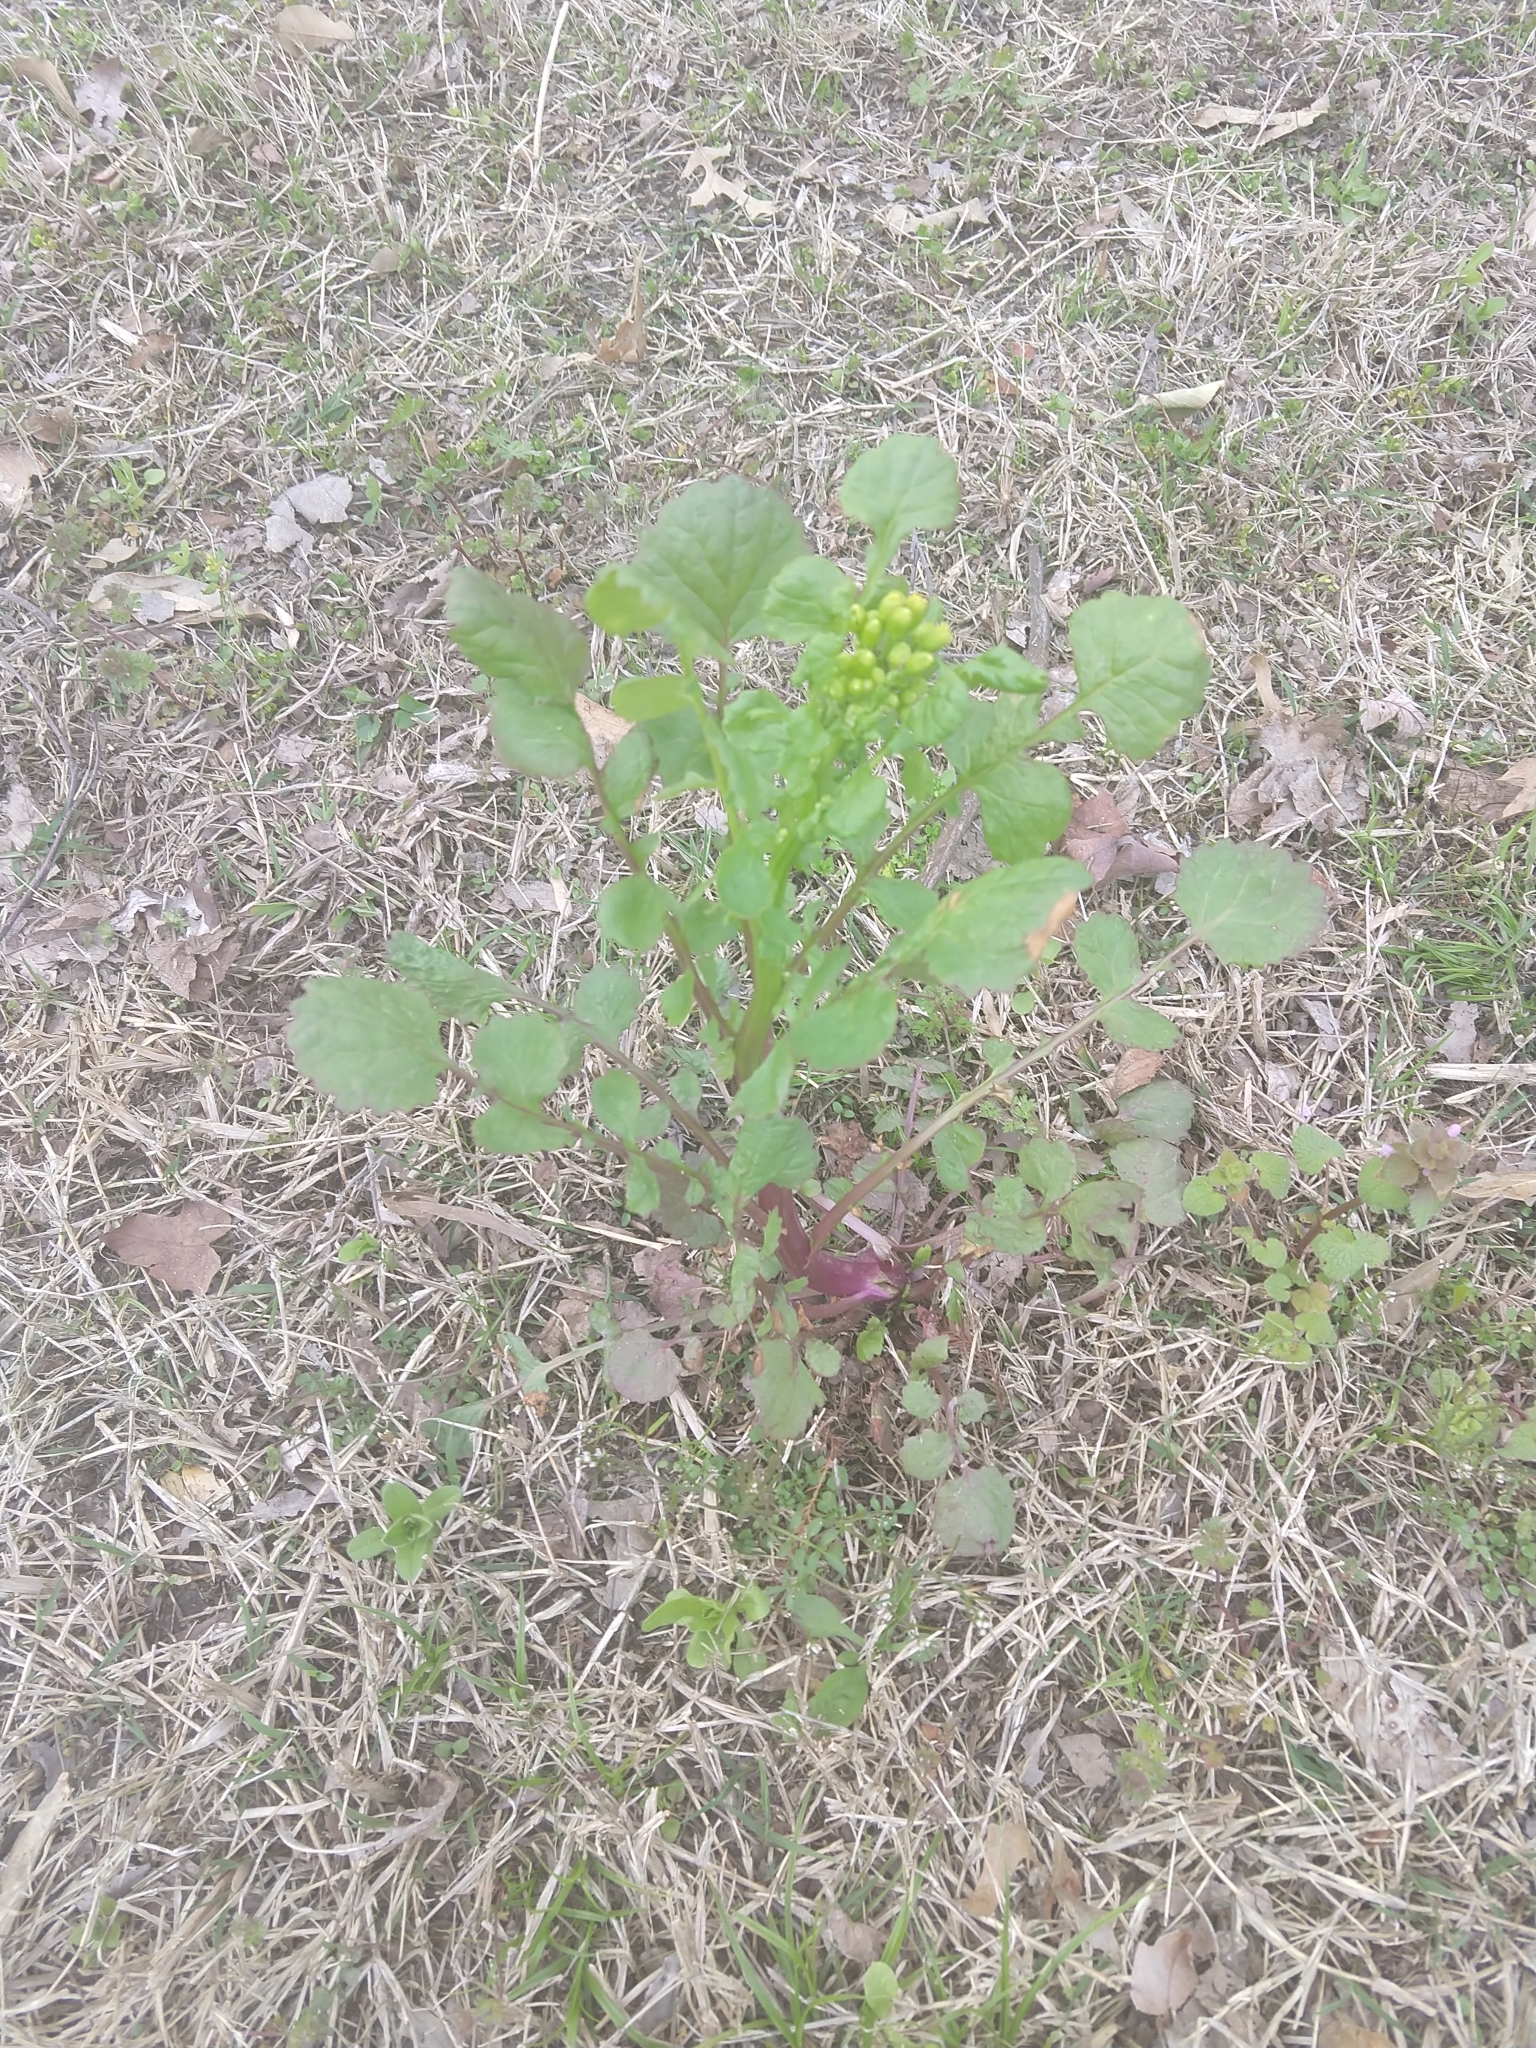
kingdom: Plantae
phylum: Tracheophyta
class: Magnoliopsida
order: Asterales
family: Asteraceae
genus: Packera
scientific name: Packera glabella
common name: Butterweed
